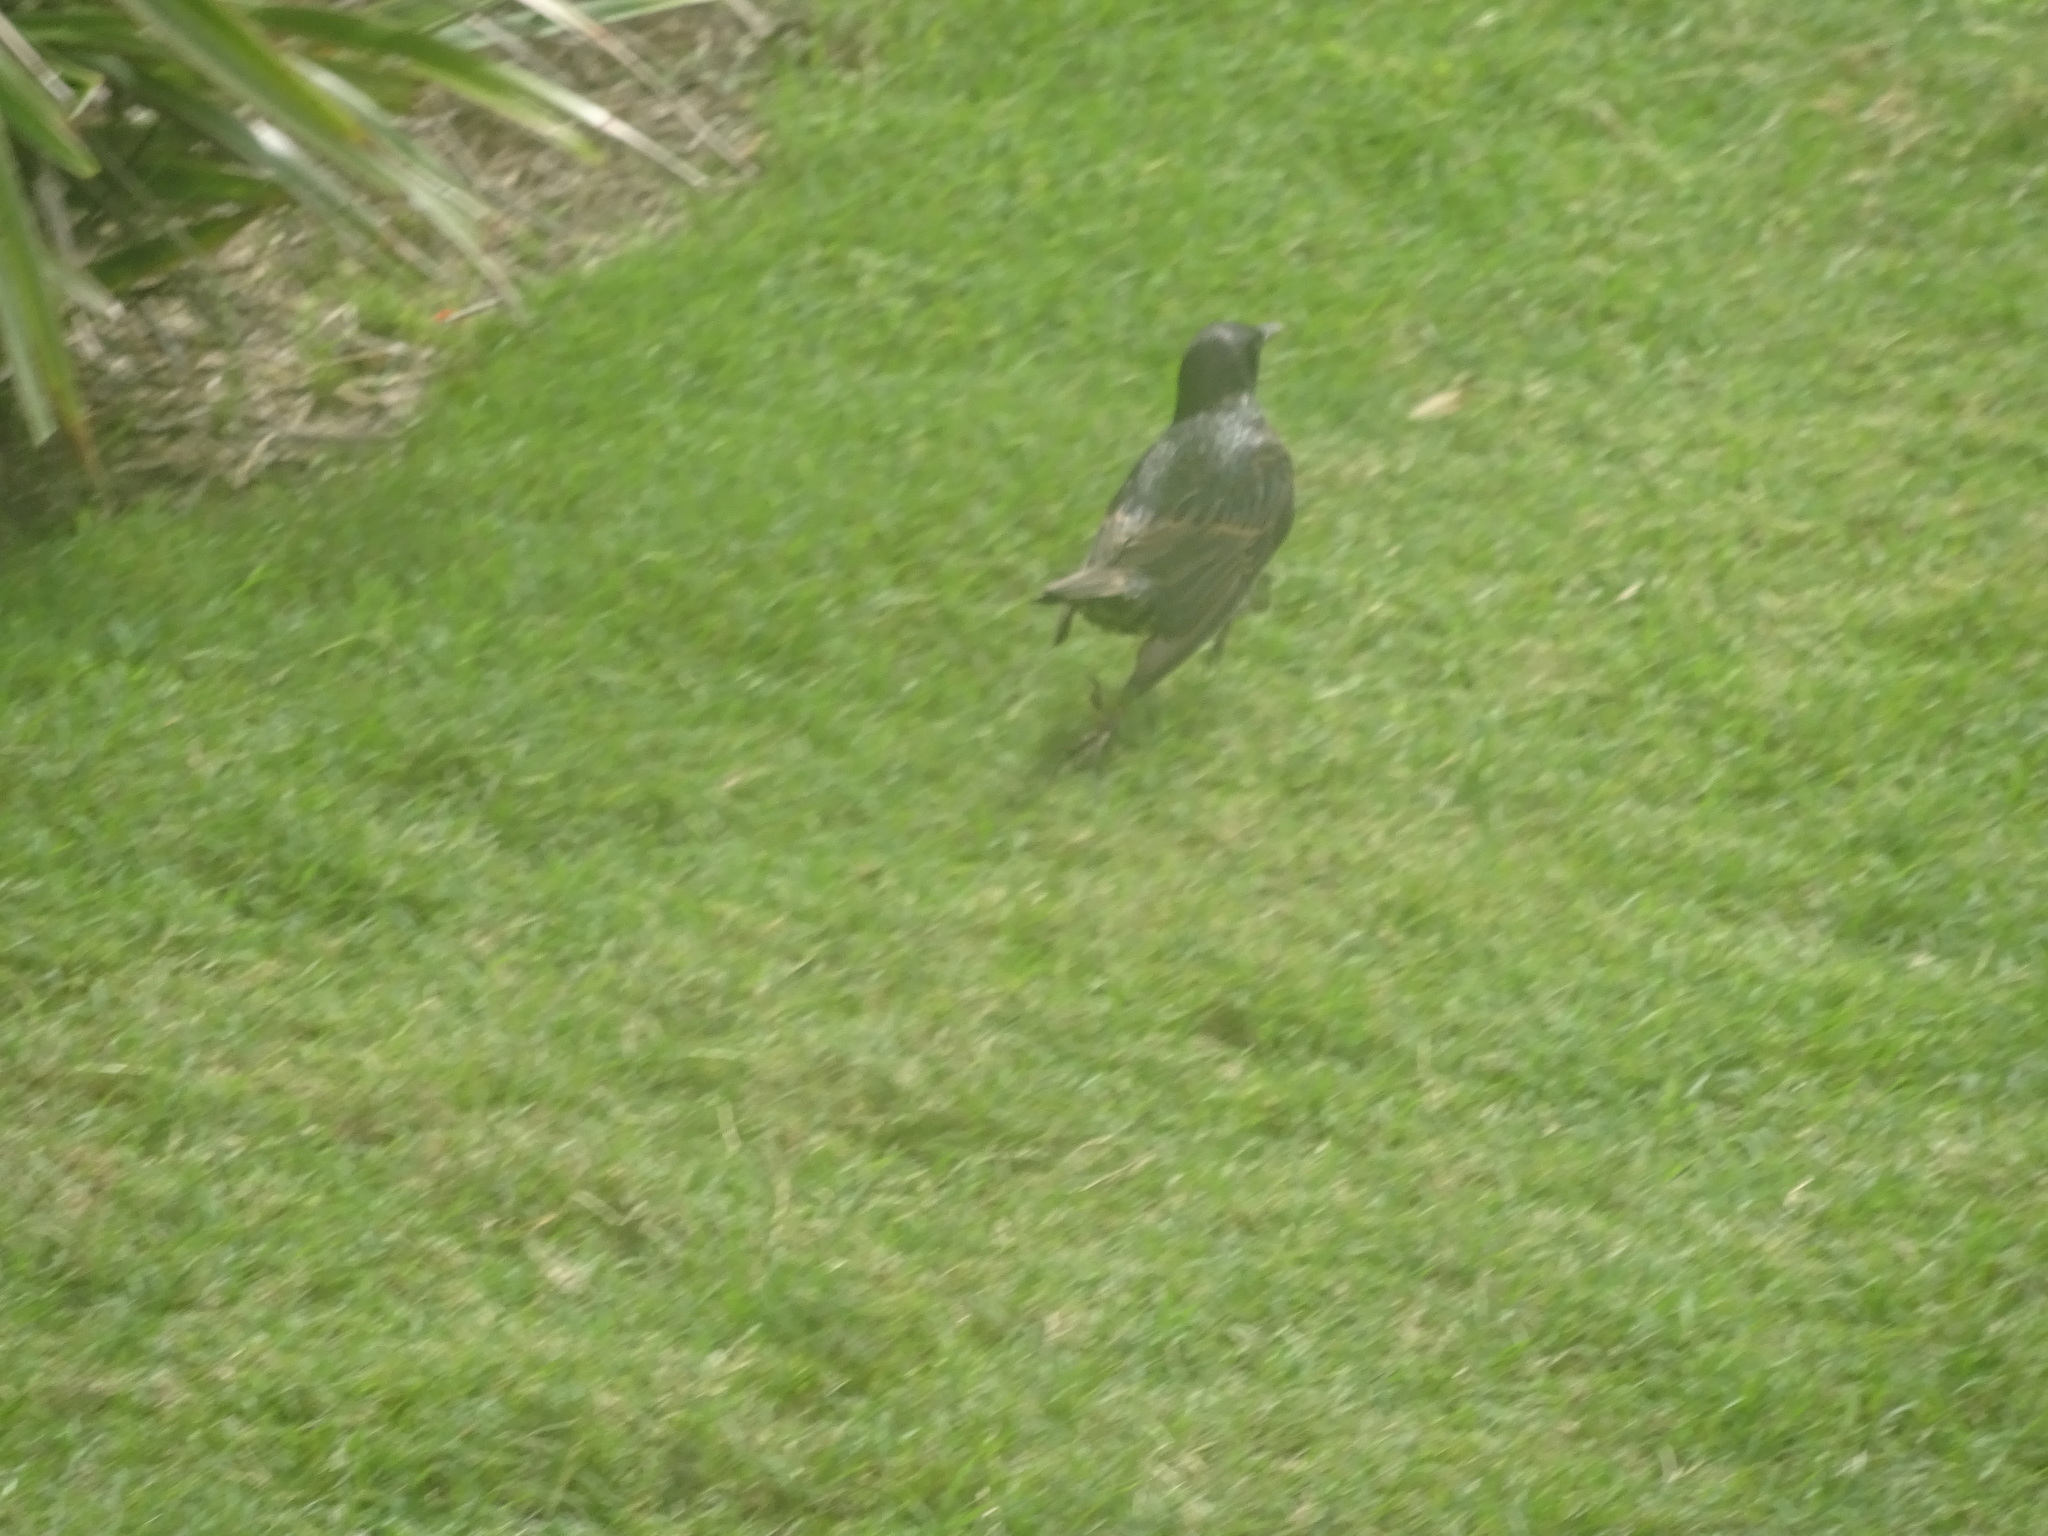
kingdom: Animalia
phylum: Chordata
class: Aves
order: Passeriformes
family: Sturnidae
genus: Sturnus
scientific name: Sturnus vulgaris
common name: Common starling
